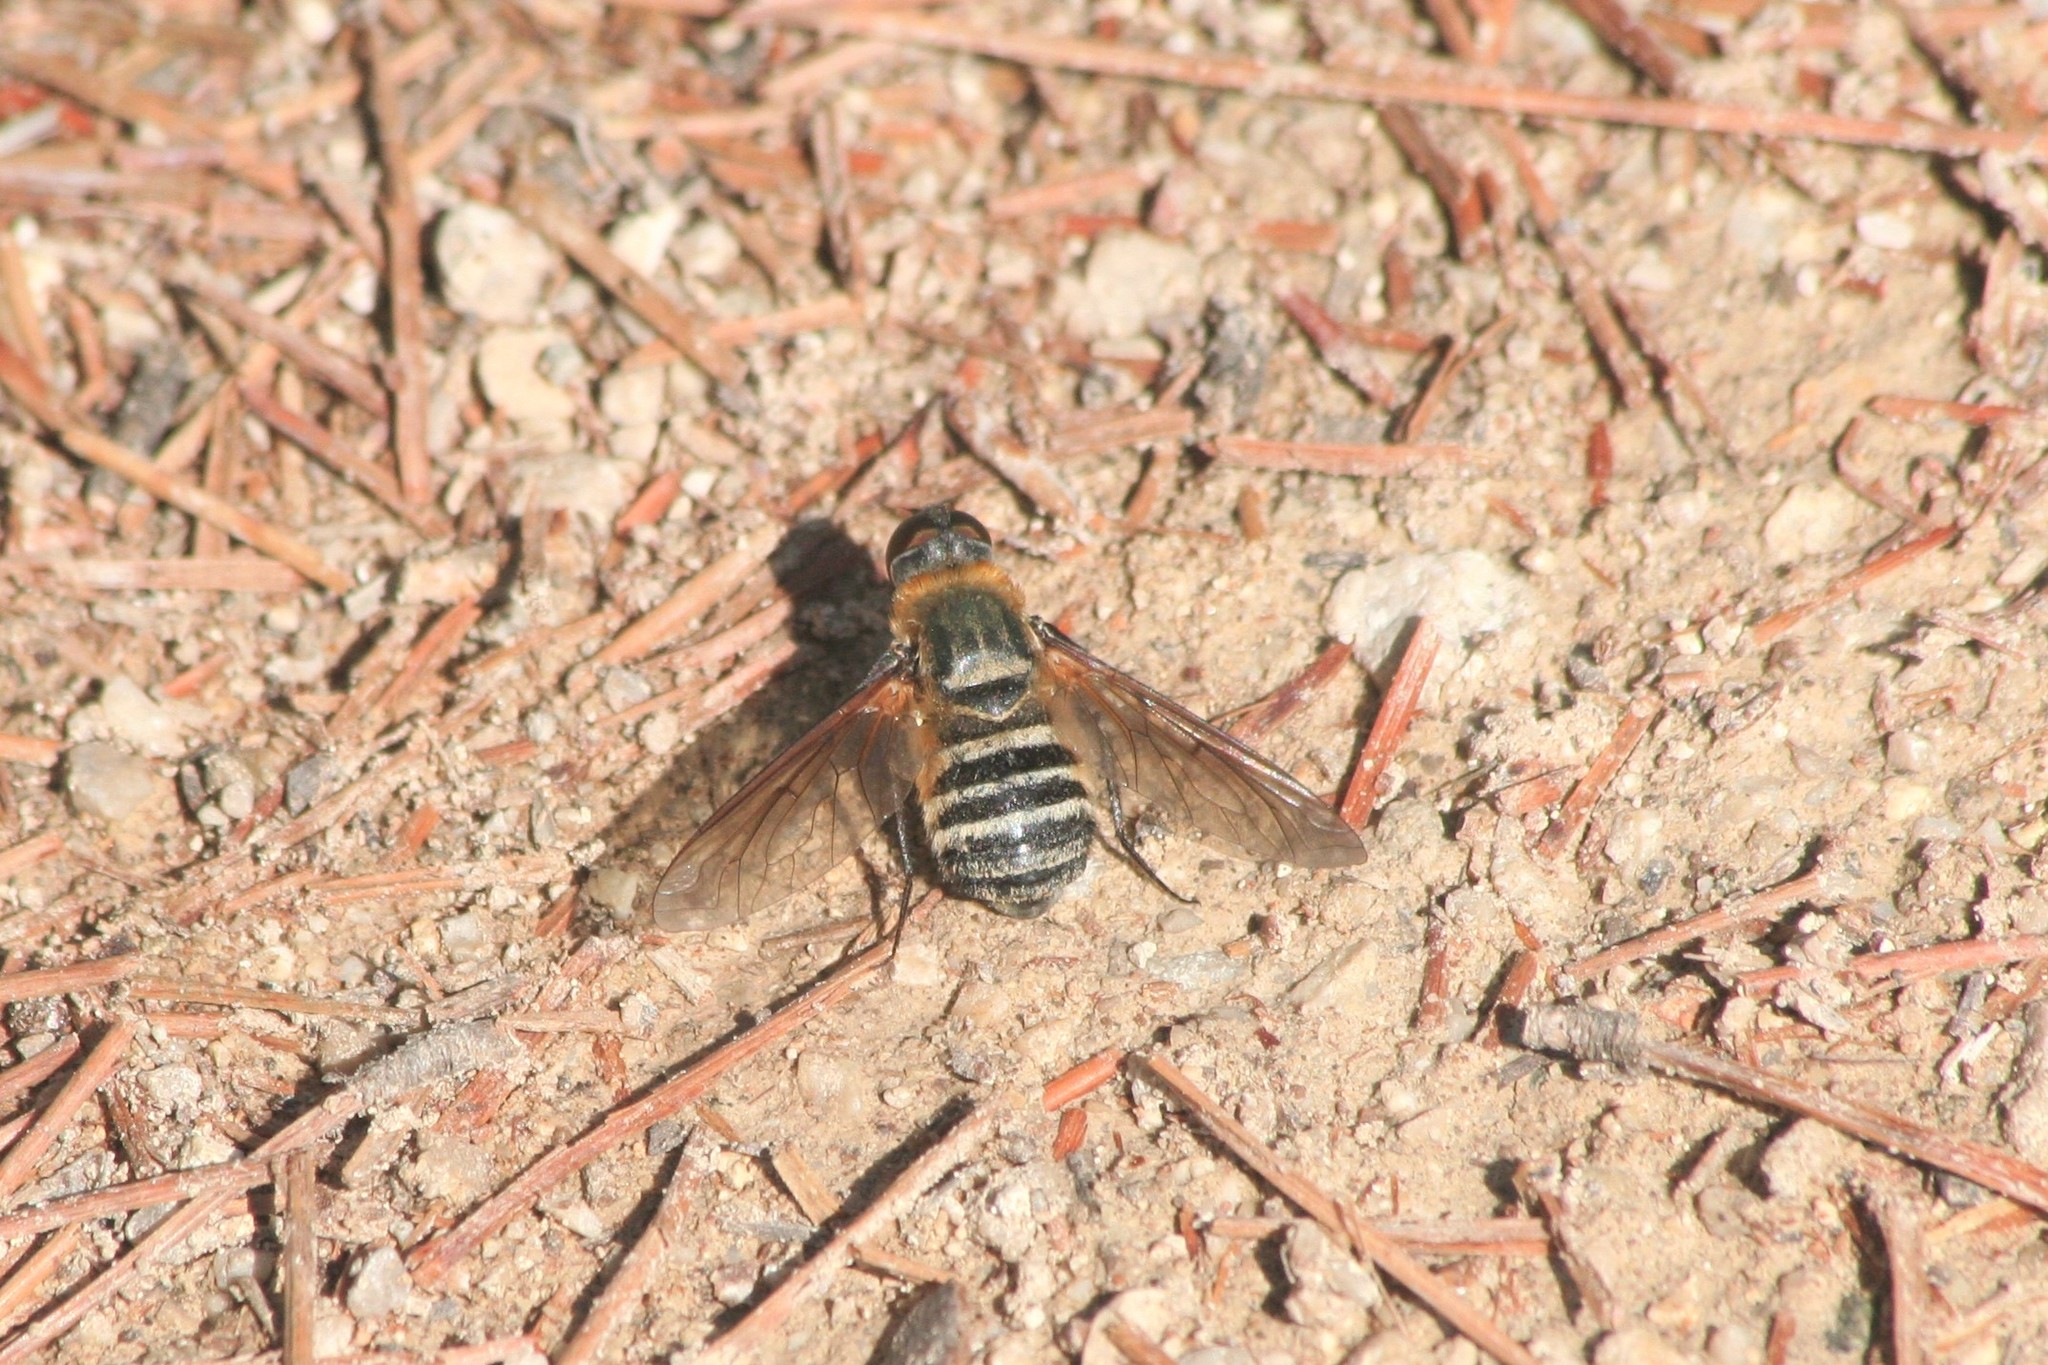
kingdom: Animalia
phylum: Arthropoda
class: Insecta
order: Diptera
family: Bombyliidae
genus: Villa
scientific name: Villa brunnea
